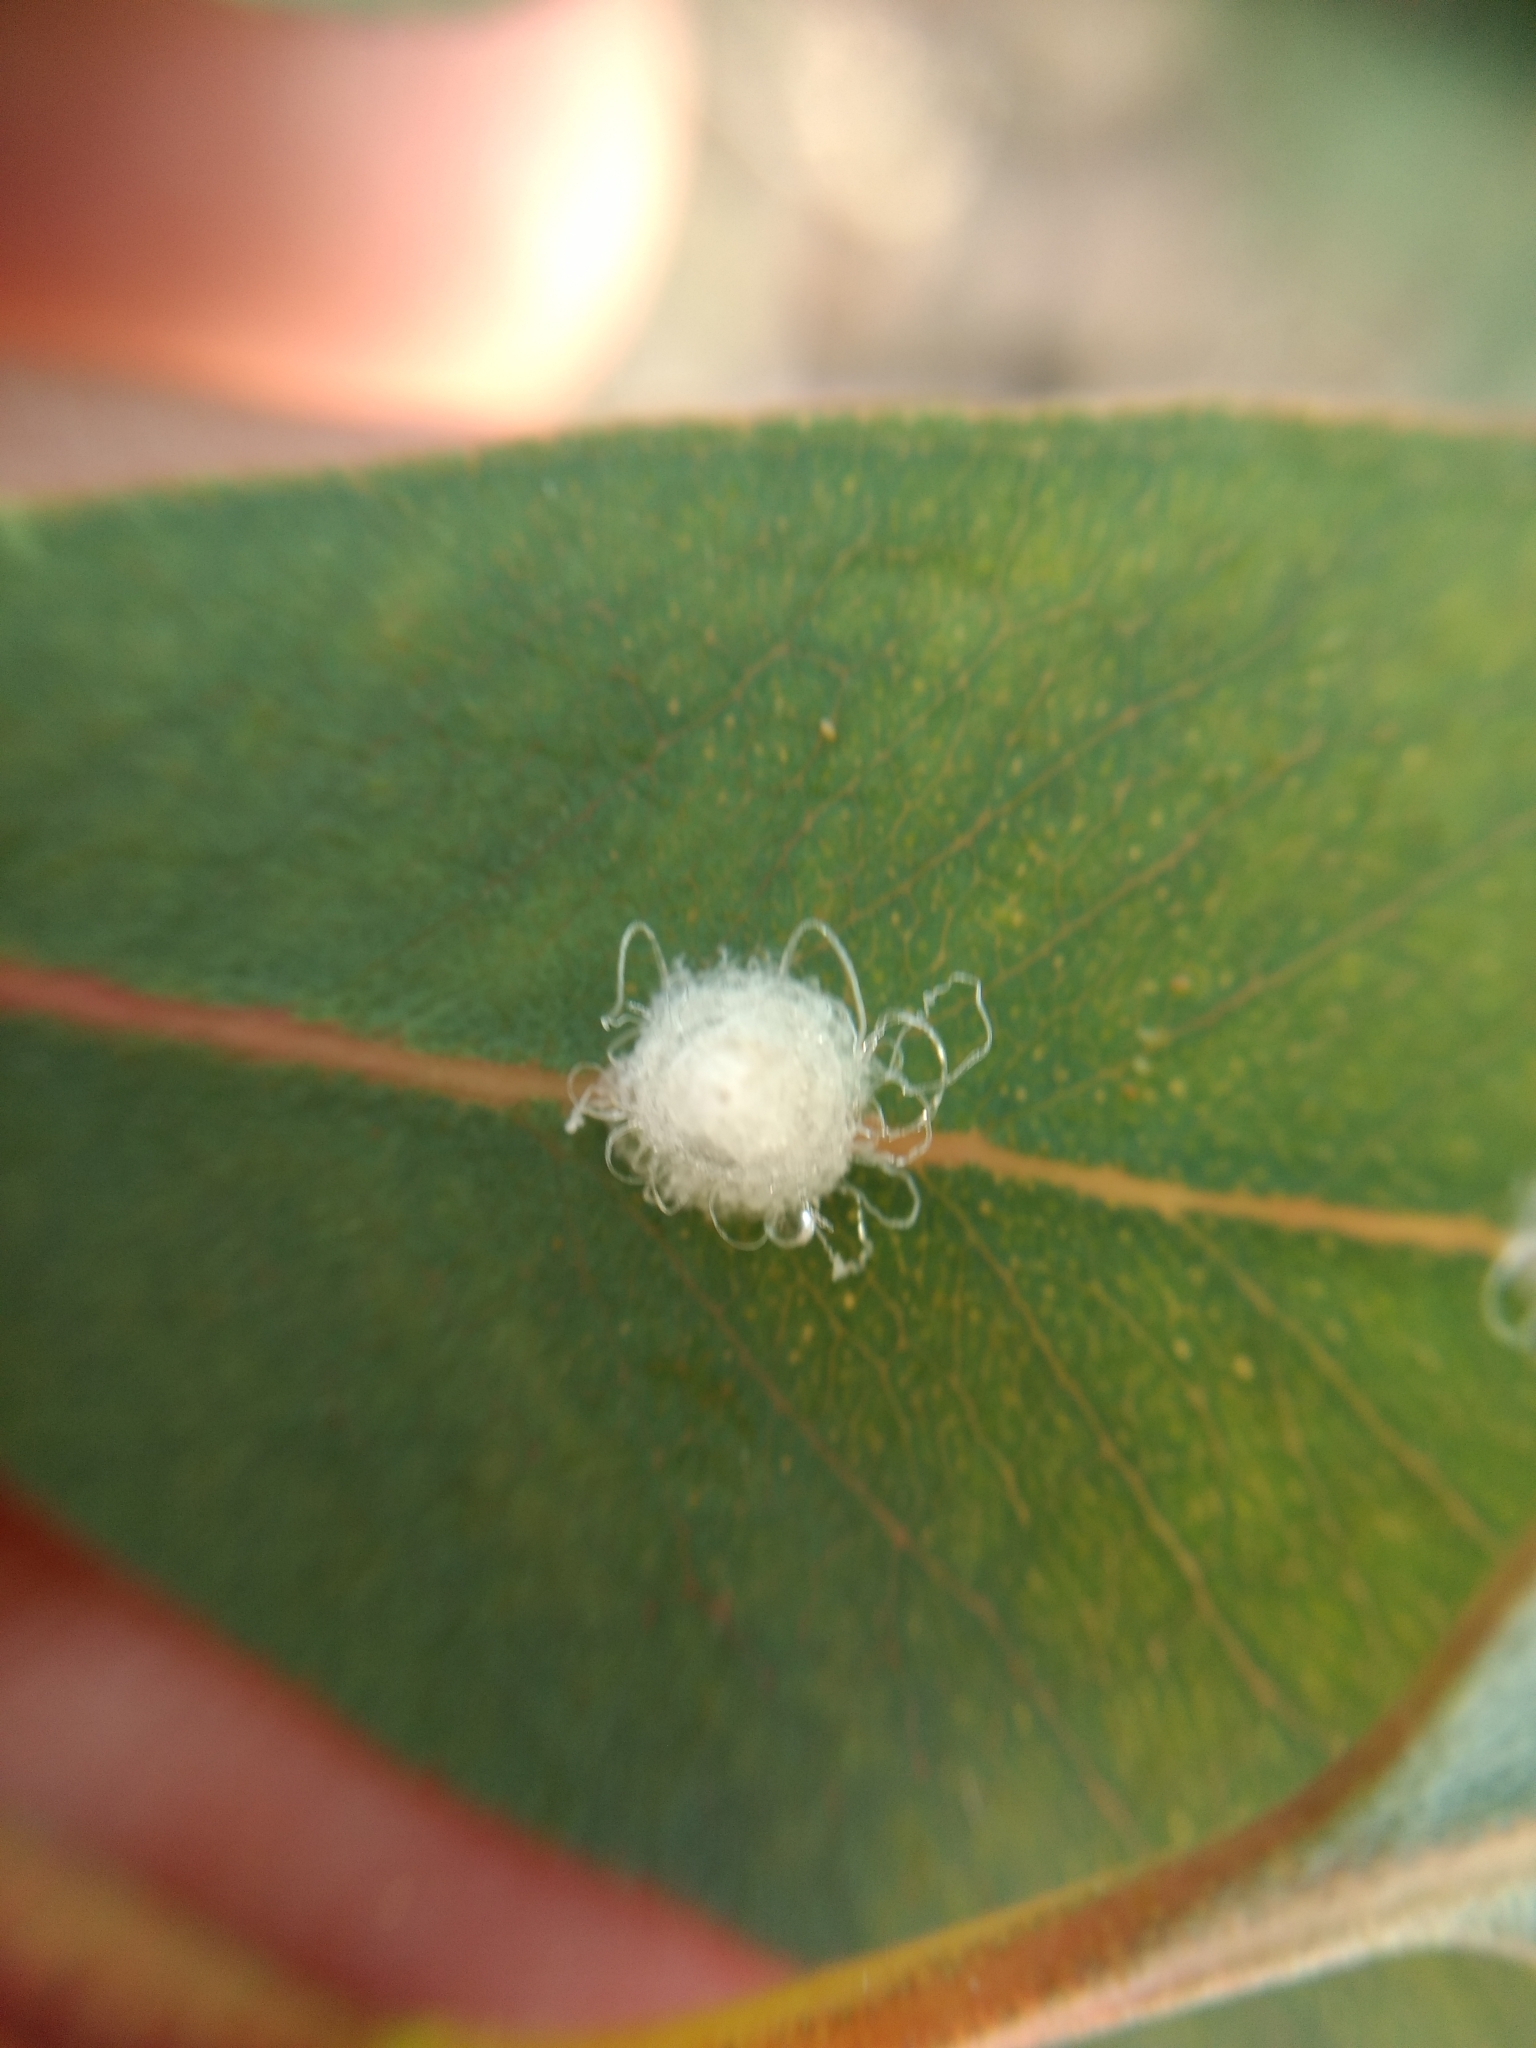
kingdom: Animalia
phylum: Arthropoda
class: Insecta
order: Hemiptera
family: Aphalaridae
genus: Glycaspis
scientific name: Glycaspis brimblecombei
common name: Red gum lerp psyllid
